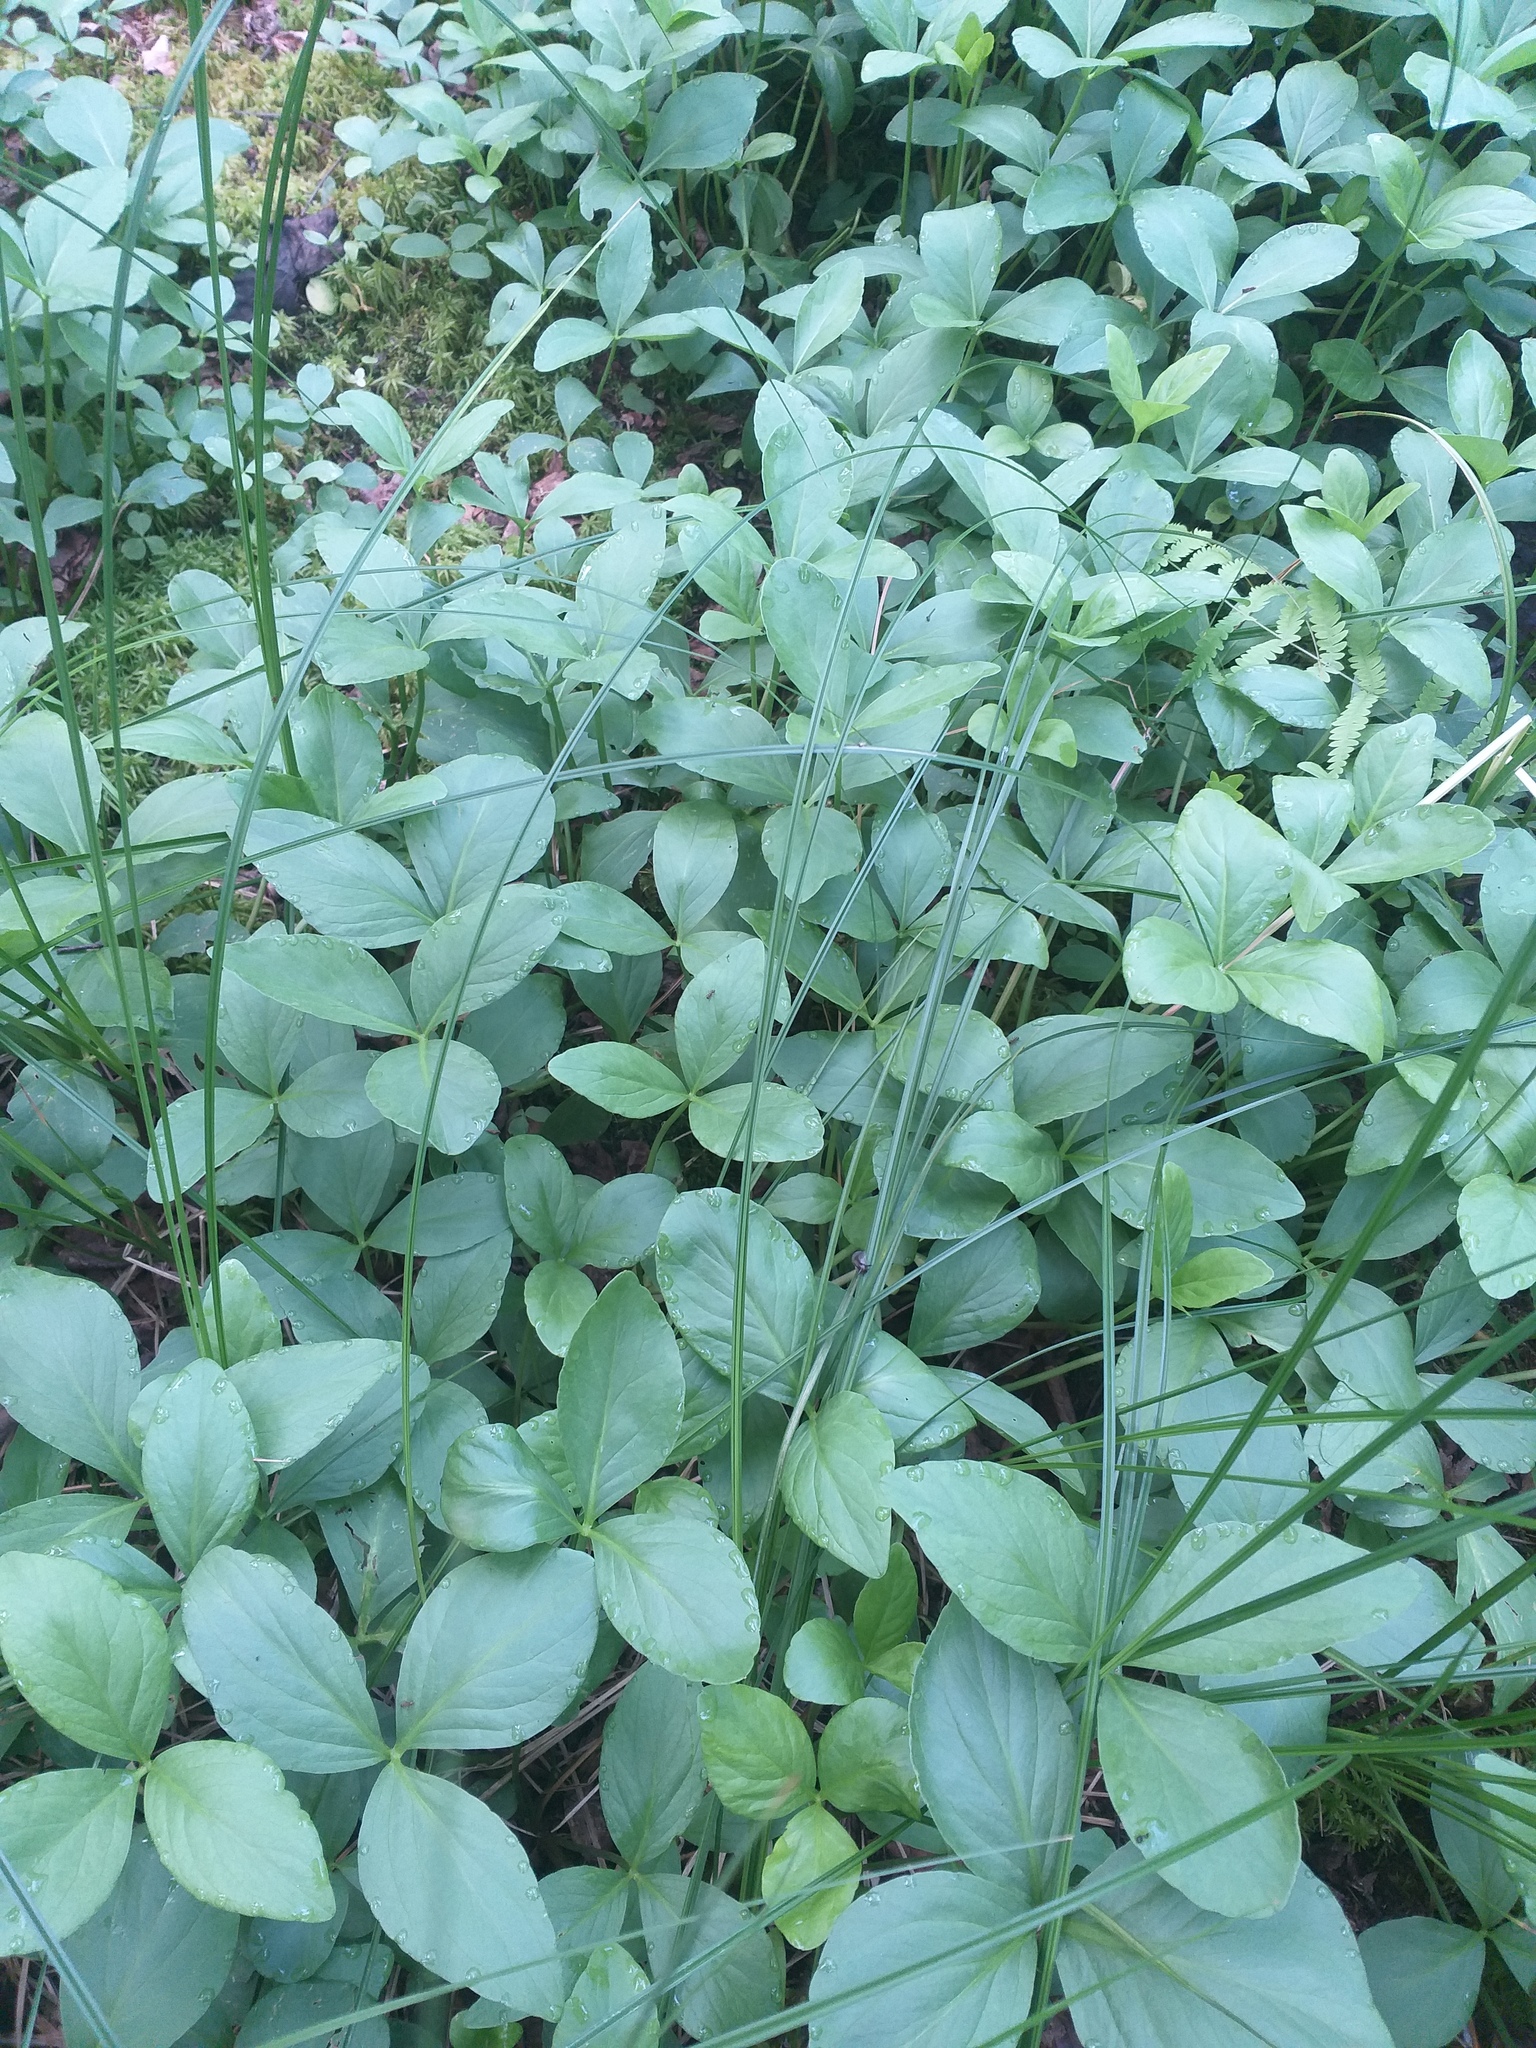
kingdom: Plantae
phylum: Tracheophyta
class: Magnoliopsida
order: Asterales
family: Menyanthaceae
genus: Menyanthes
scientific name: Menyanthes trifoliata
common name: Bogbean
